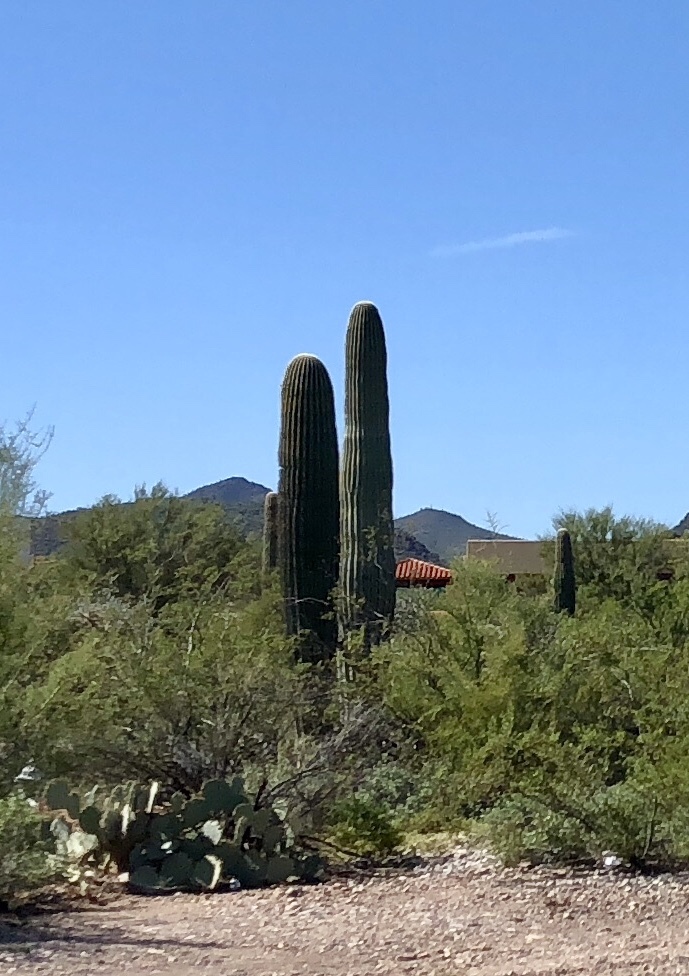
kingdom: Plantae
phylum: Tracheophyta
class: Magnoliopsida
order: Caryophyllales
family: Cactaceae
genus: Carnegiea
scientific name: Carnegiea gigantea
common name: Saguaro
